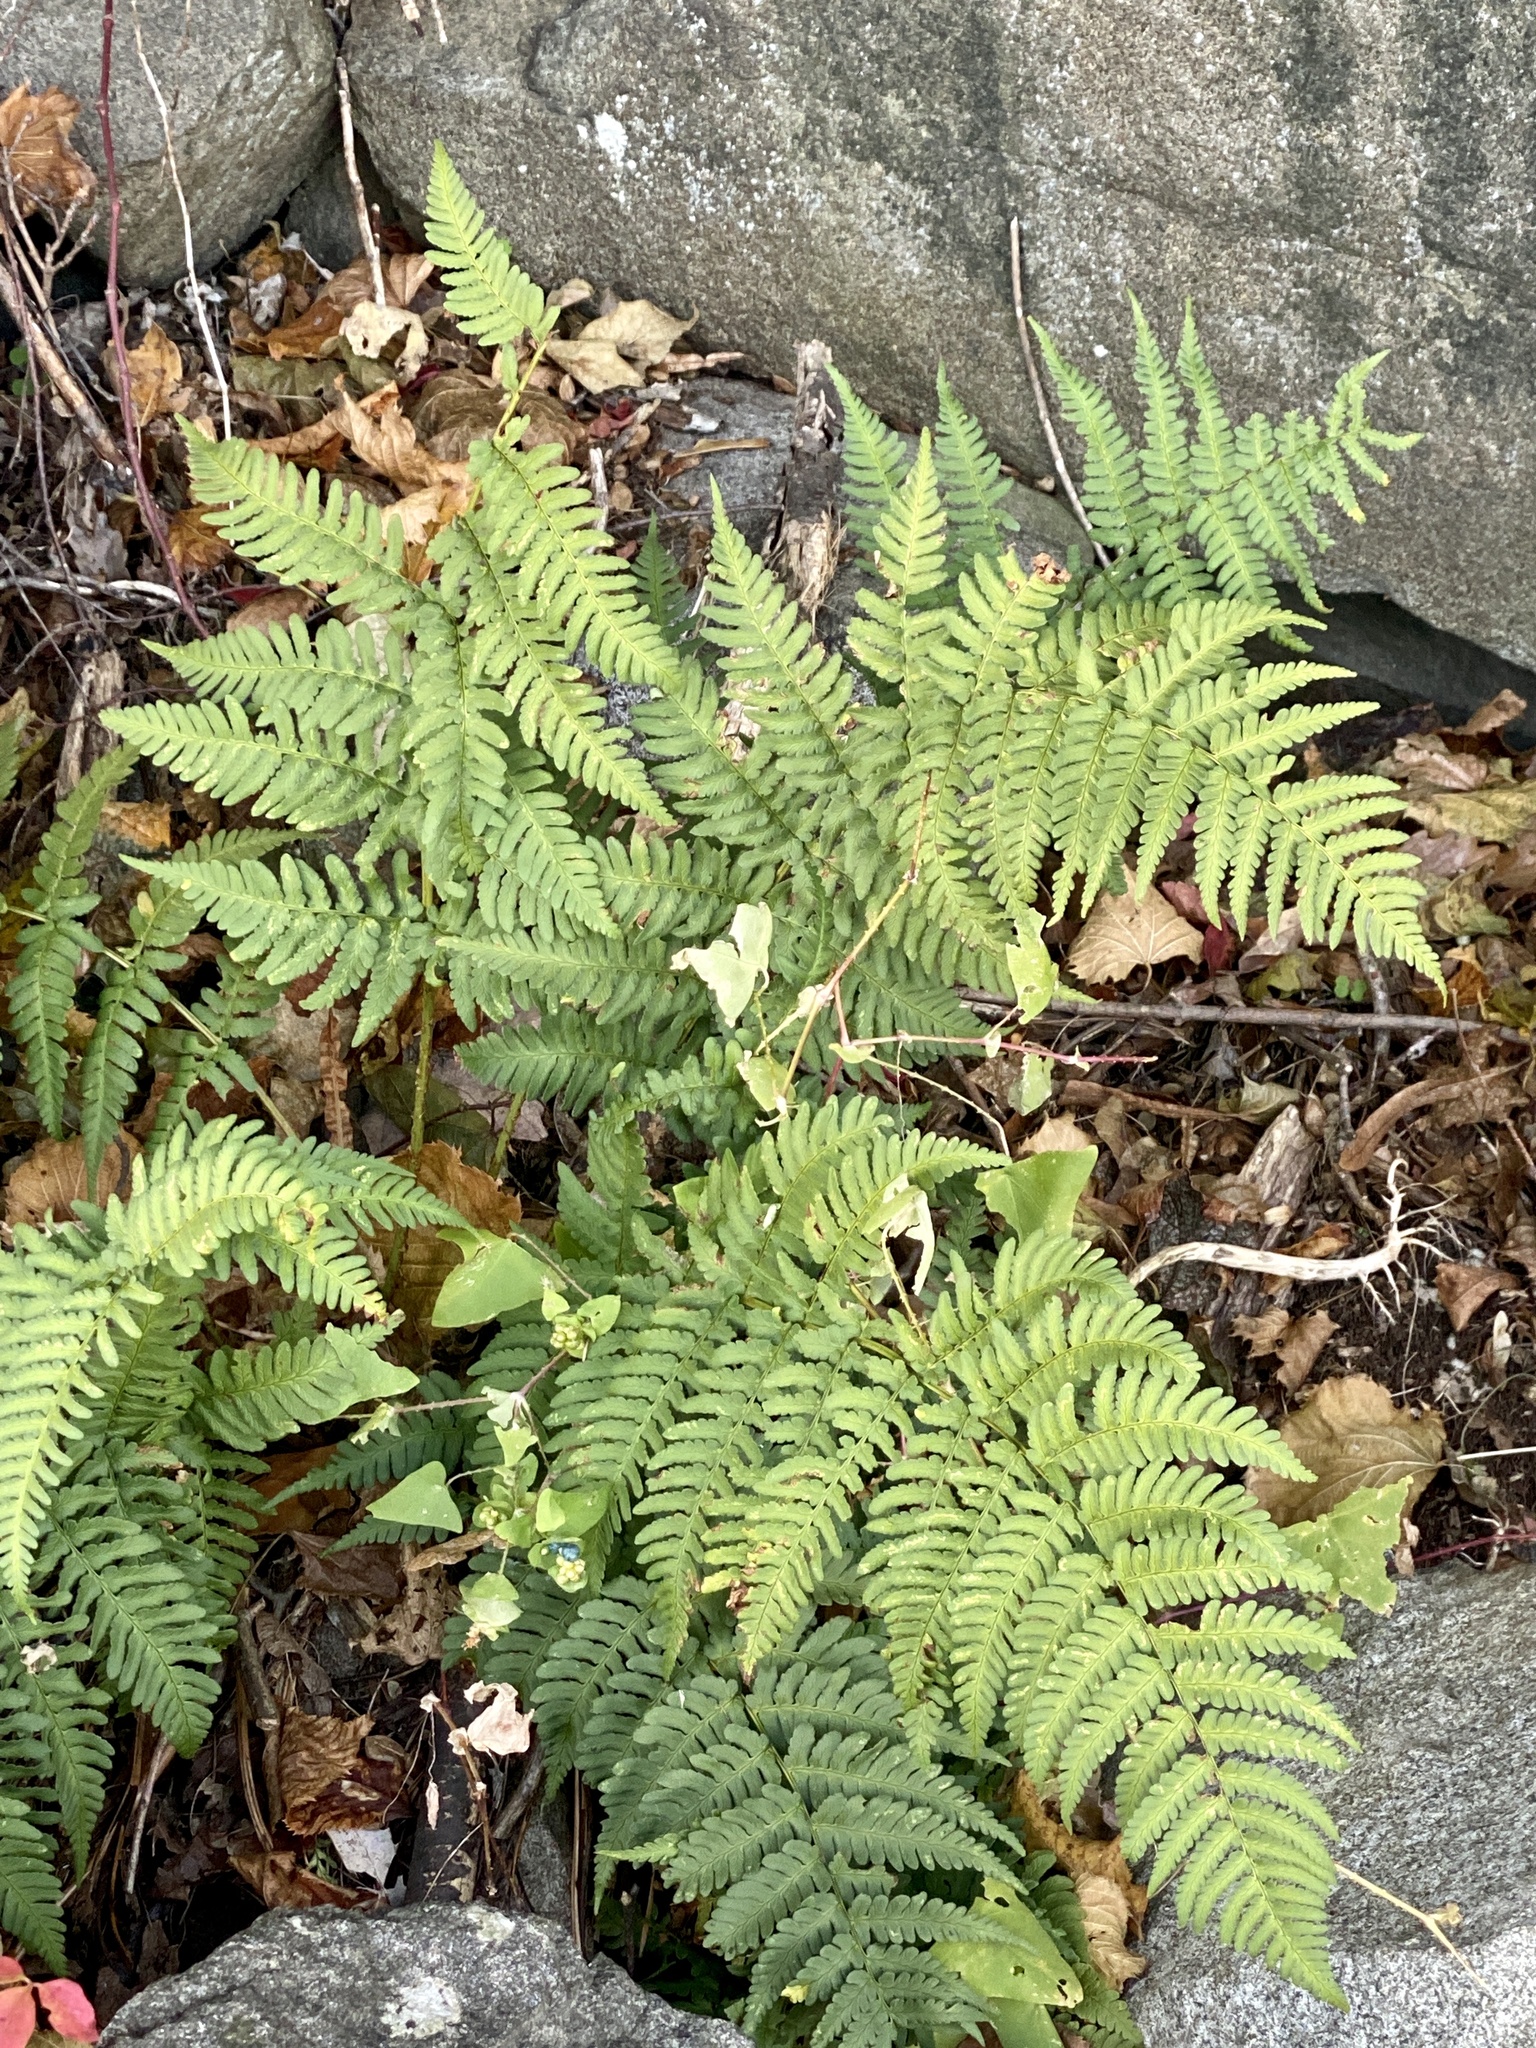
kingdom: Plantae
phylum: Tracheophyta
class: Polypodiopsida
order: Polypodiales
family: Dryopteridaceae
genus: Dryopteris
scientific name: Dryopteris marginalis
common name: Marginal wood fern
